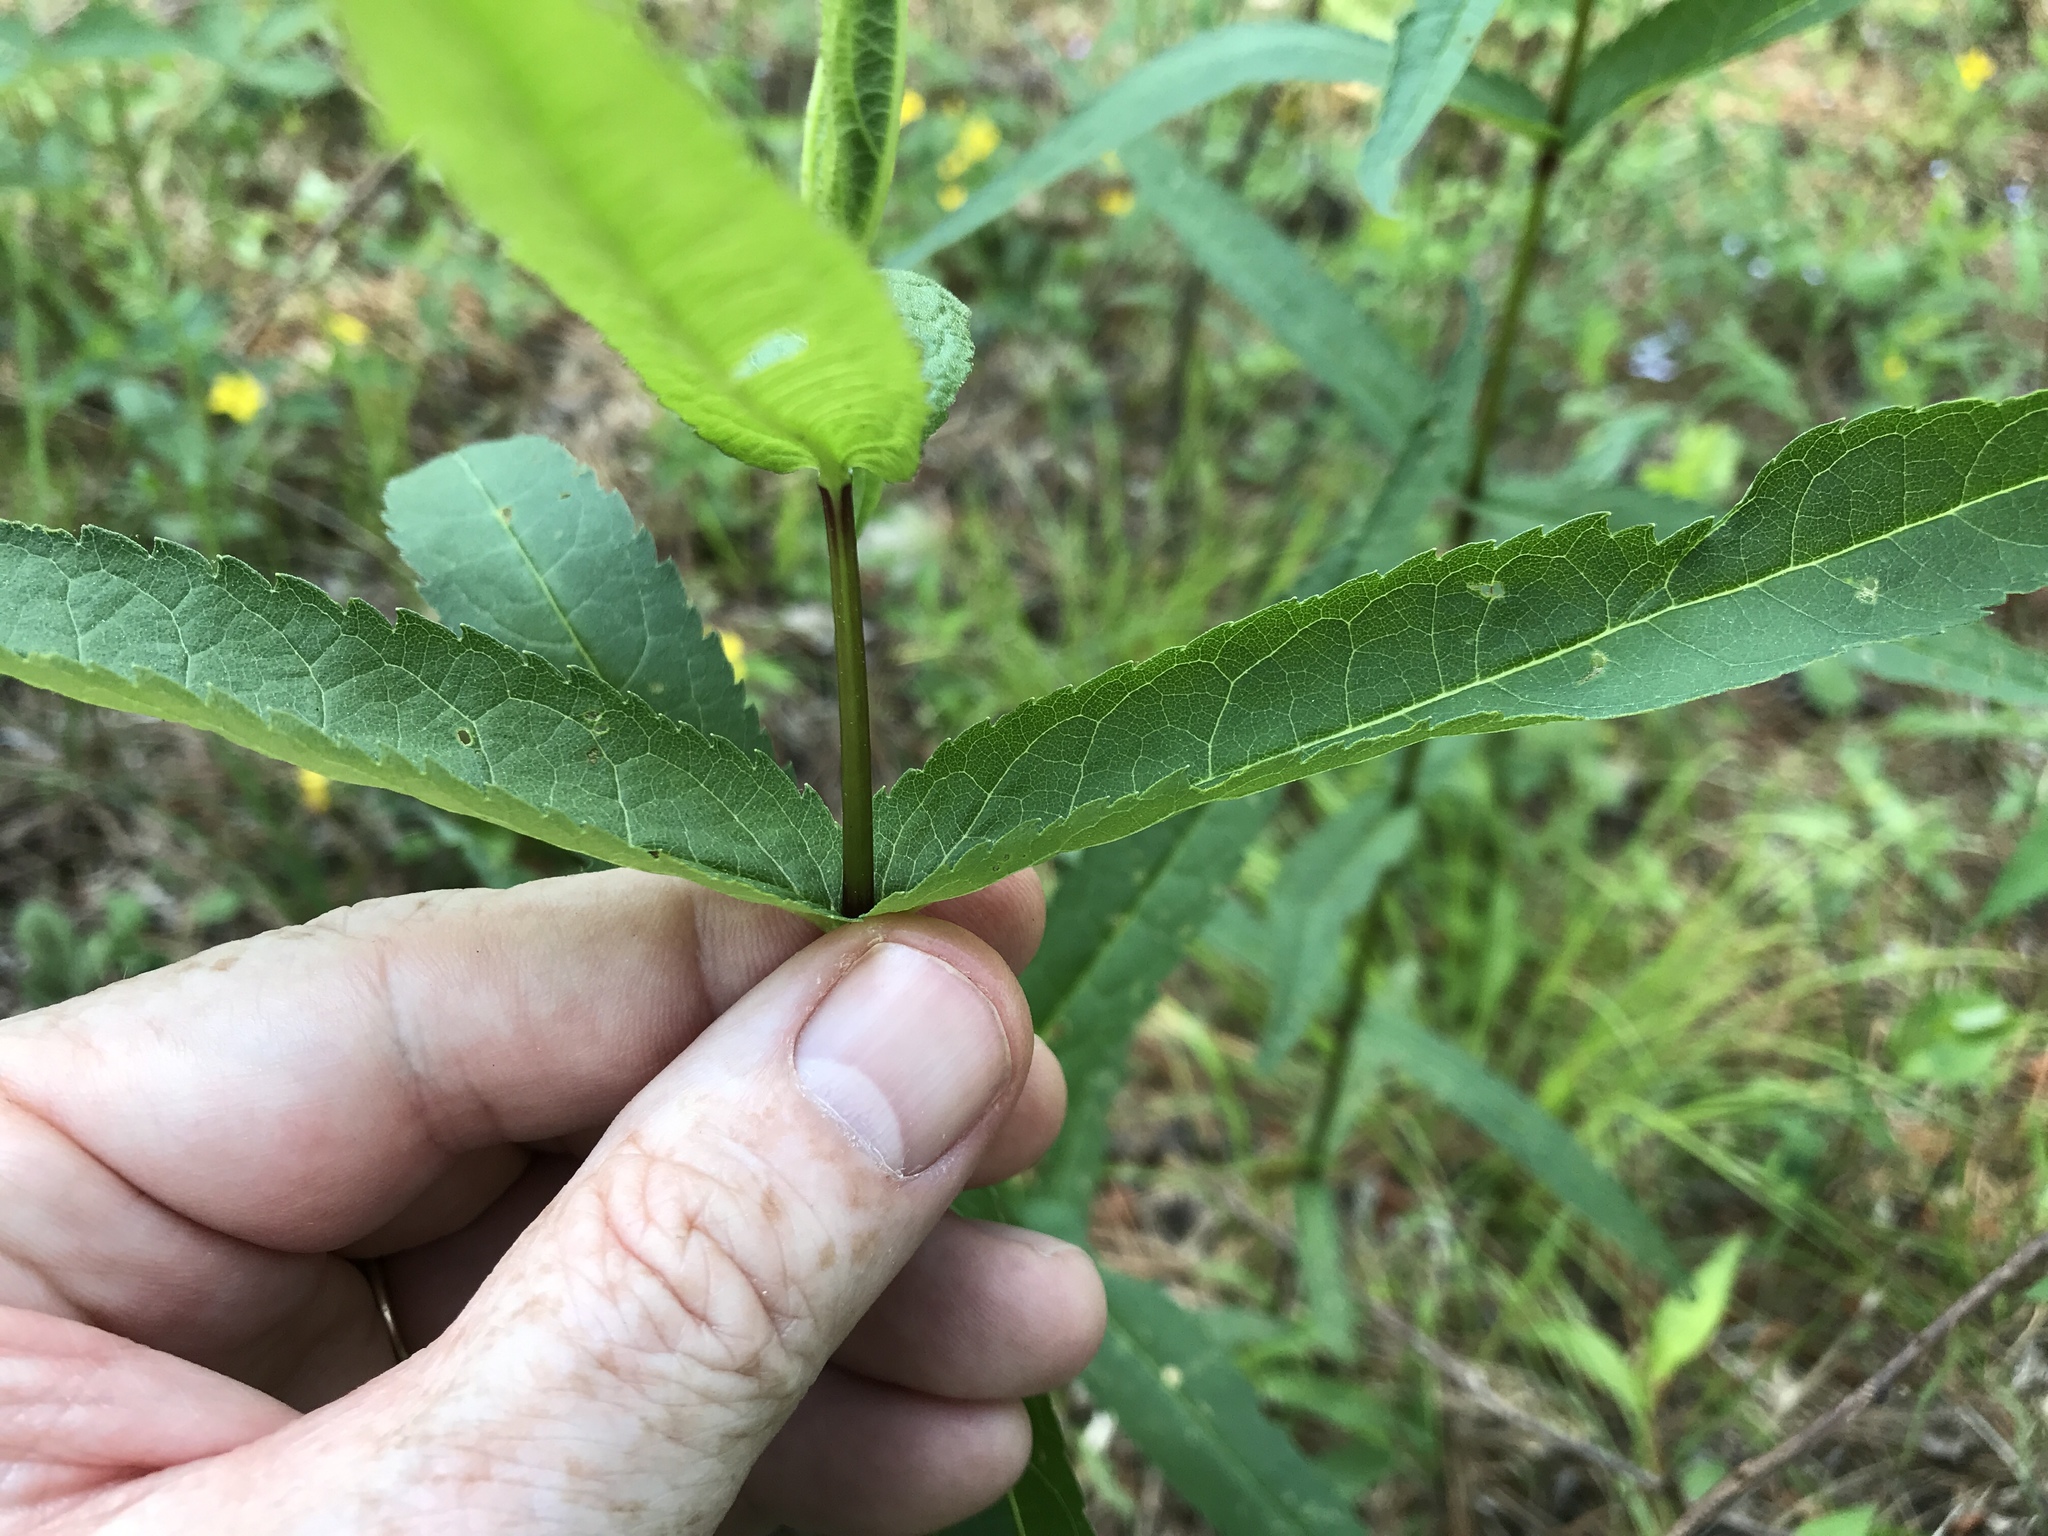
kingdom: Plantae
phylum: Tracheophyta
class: Magnoliopsida
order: Asterales
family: Asteraceae
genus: Eupatorium
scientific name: Eupatorium sessilifolium
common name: Upland boneset
